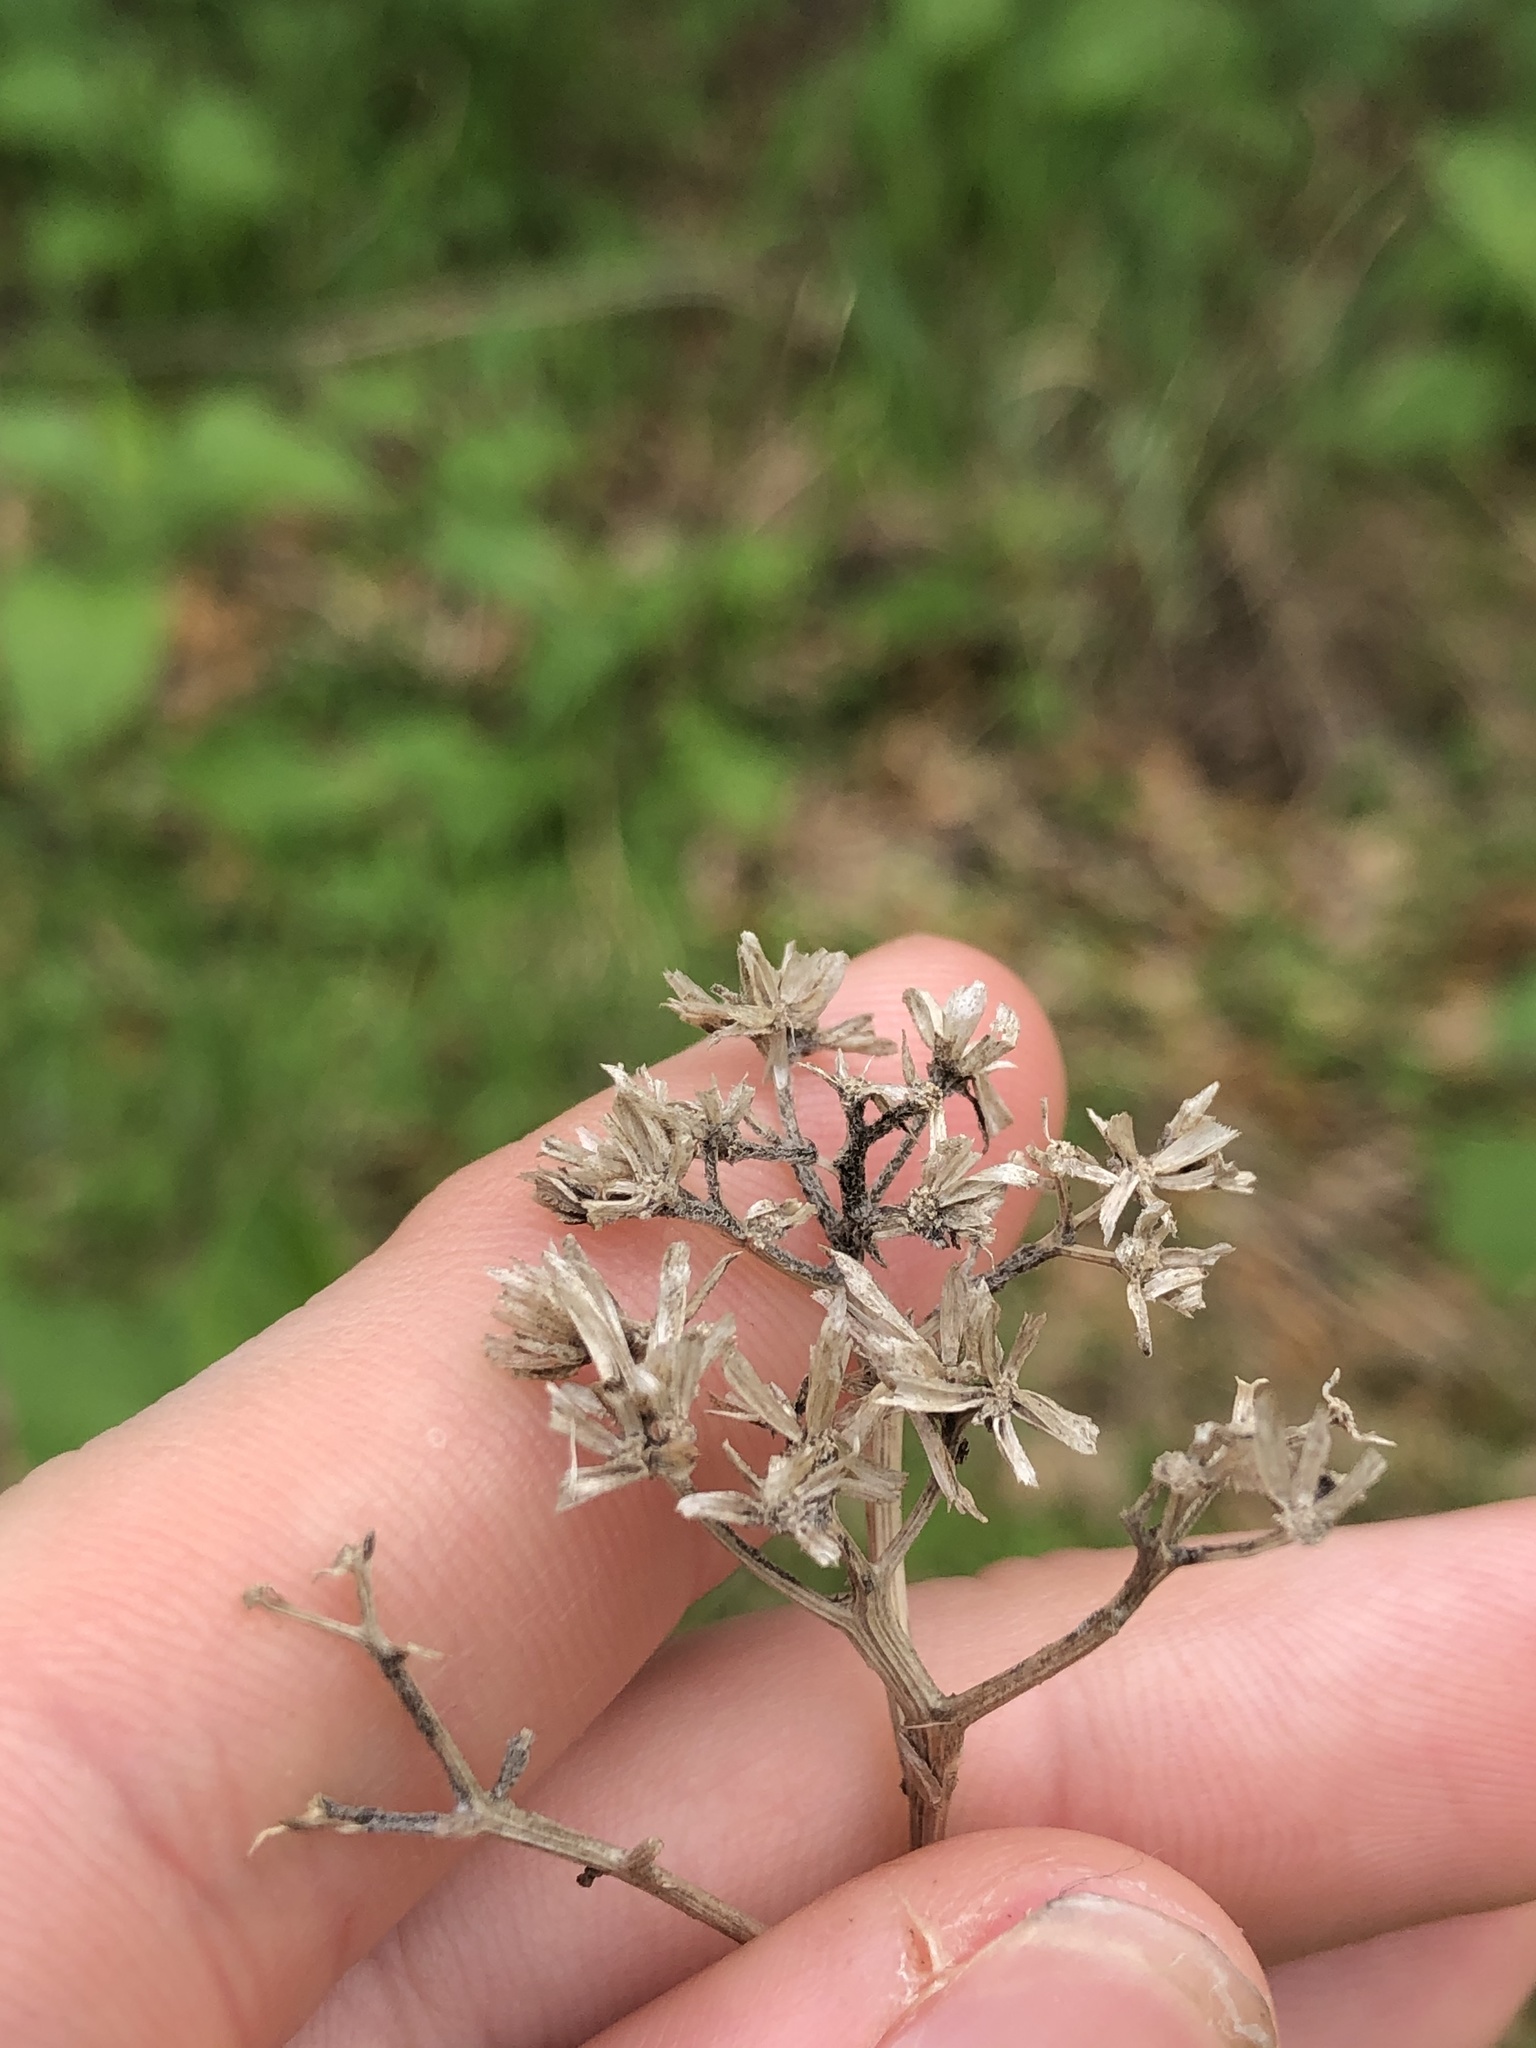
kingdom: Plantae
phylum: Tracheophyta
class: Magnoliopsida
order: Asterales
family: Asteraceae
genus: Verbesina
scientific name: Verbesina virginica
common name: Frostweed
